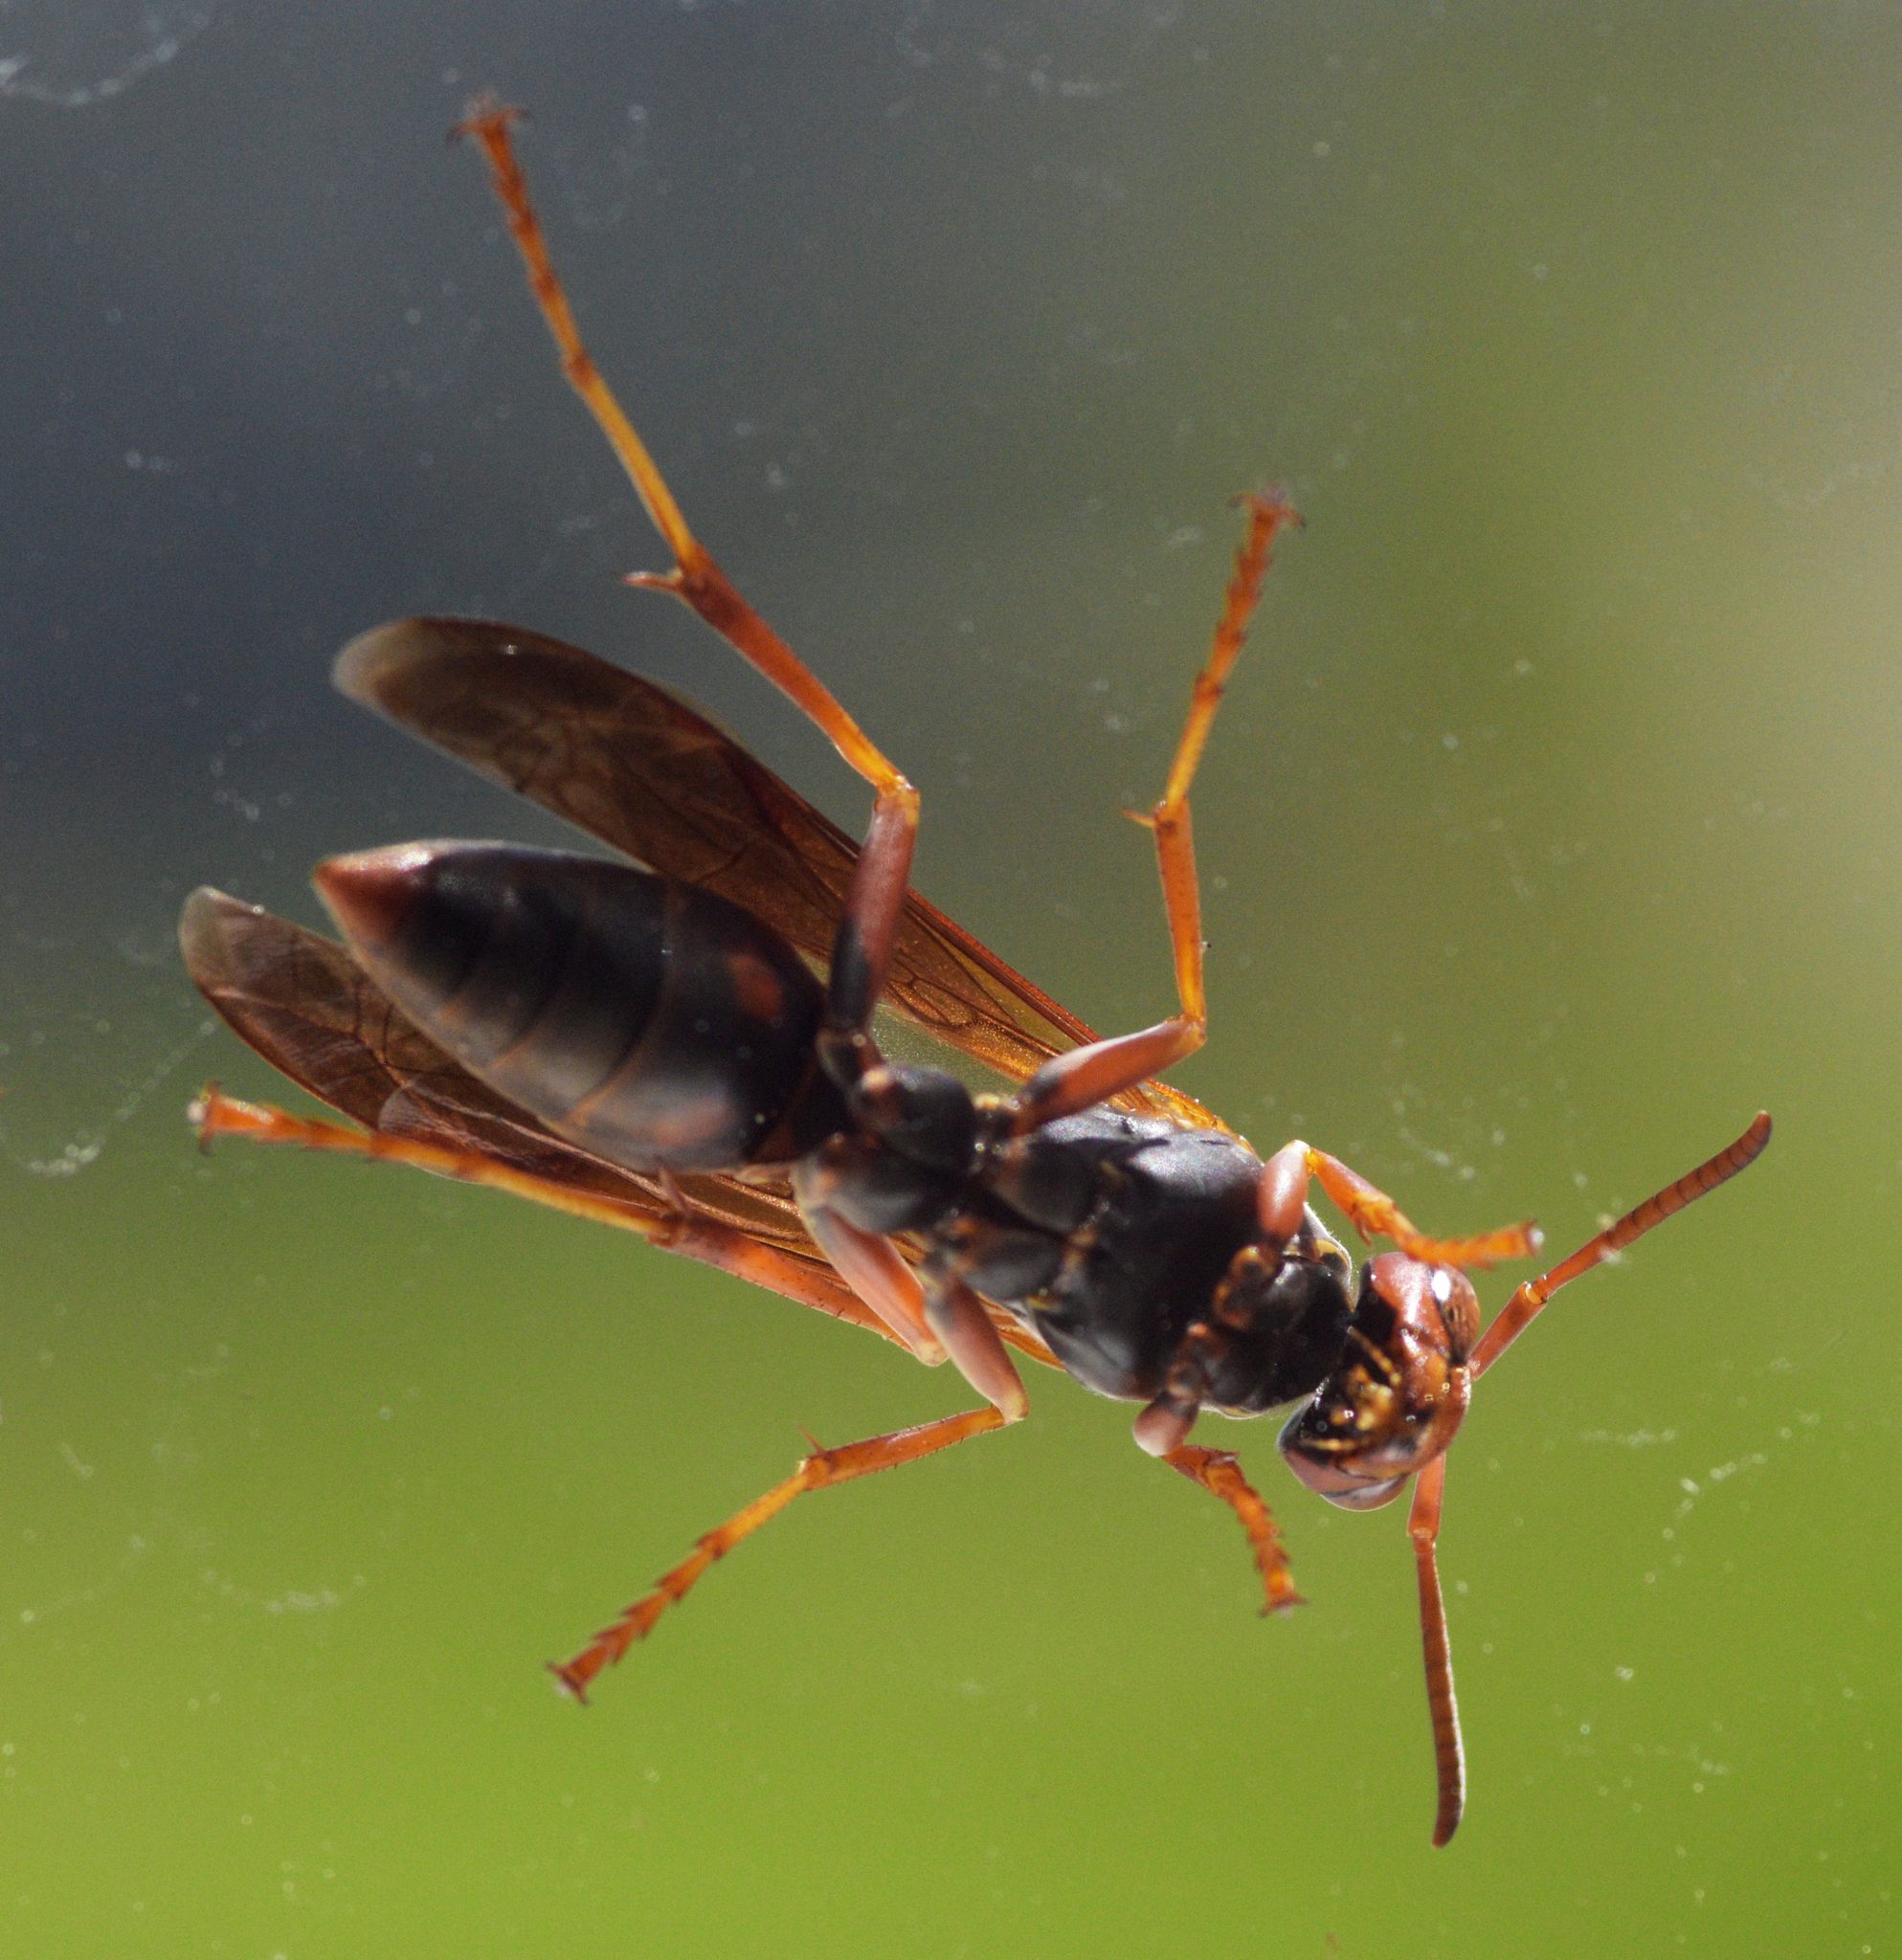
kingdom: Animalia
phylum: Arthropoda
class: Insecta
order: Hymenoptera
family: Eumenidae
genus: Polistes
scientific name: Polistes fuscatus
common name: Dark paper wasp
